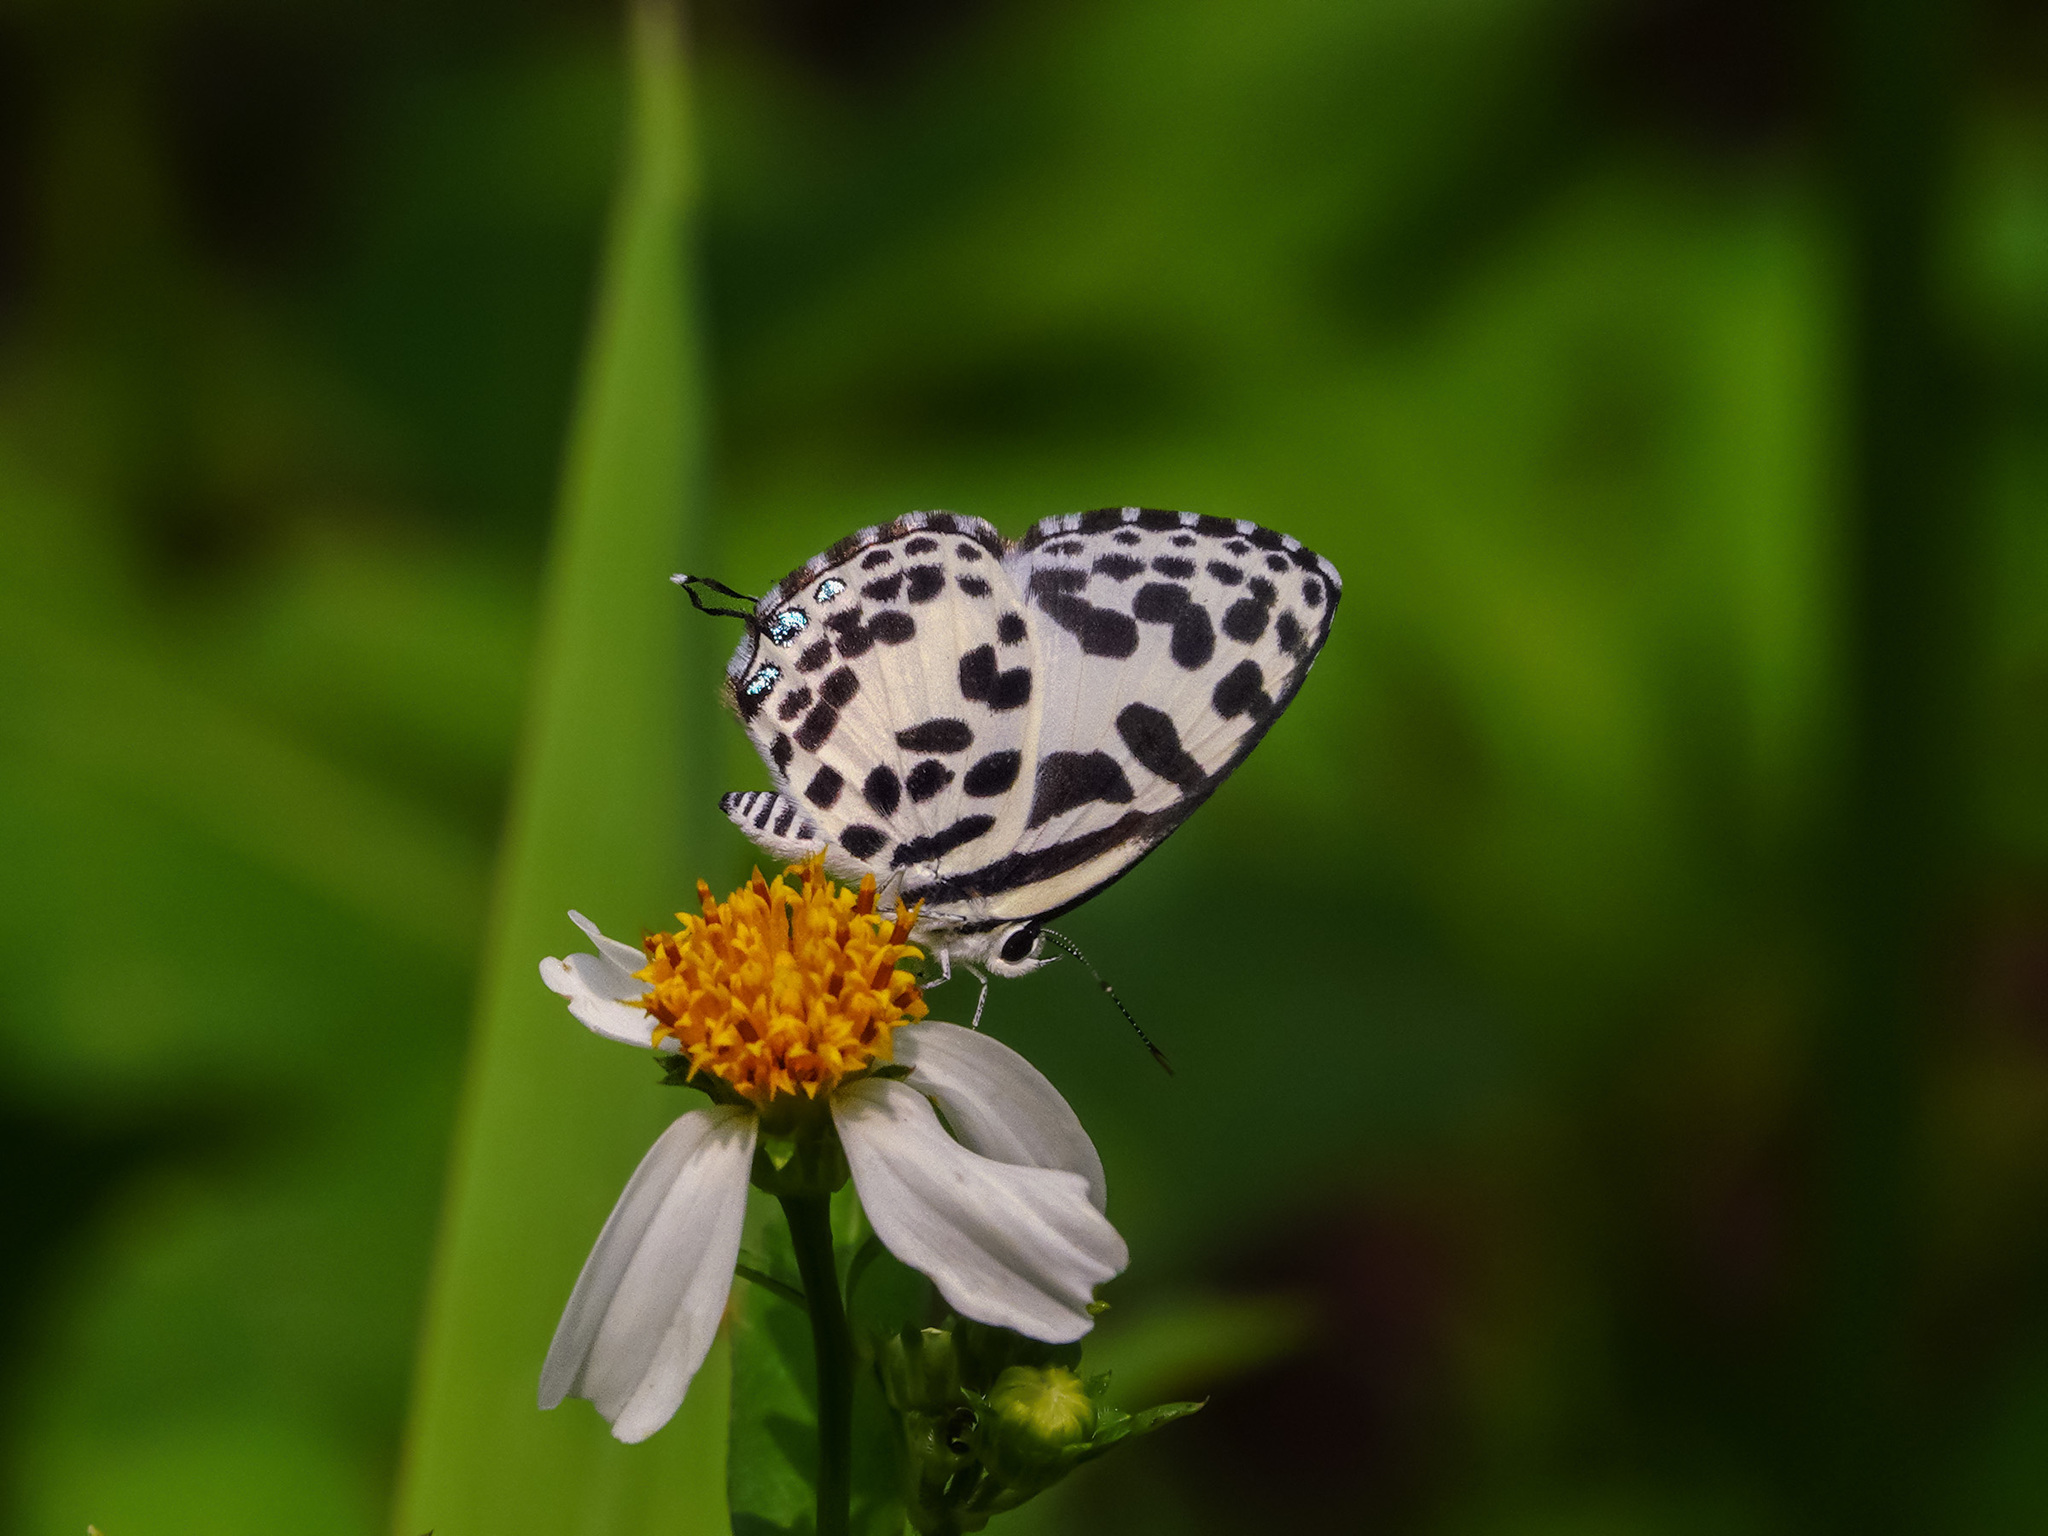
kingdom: Animalia
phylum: Arthropoda
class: Insecta
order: Lepidoptera
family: Lycaenidae
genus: Castalius
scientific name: Castalius rosimon
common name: Common pierrot
